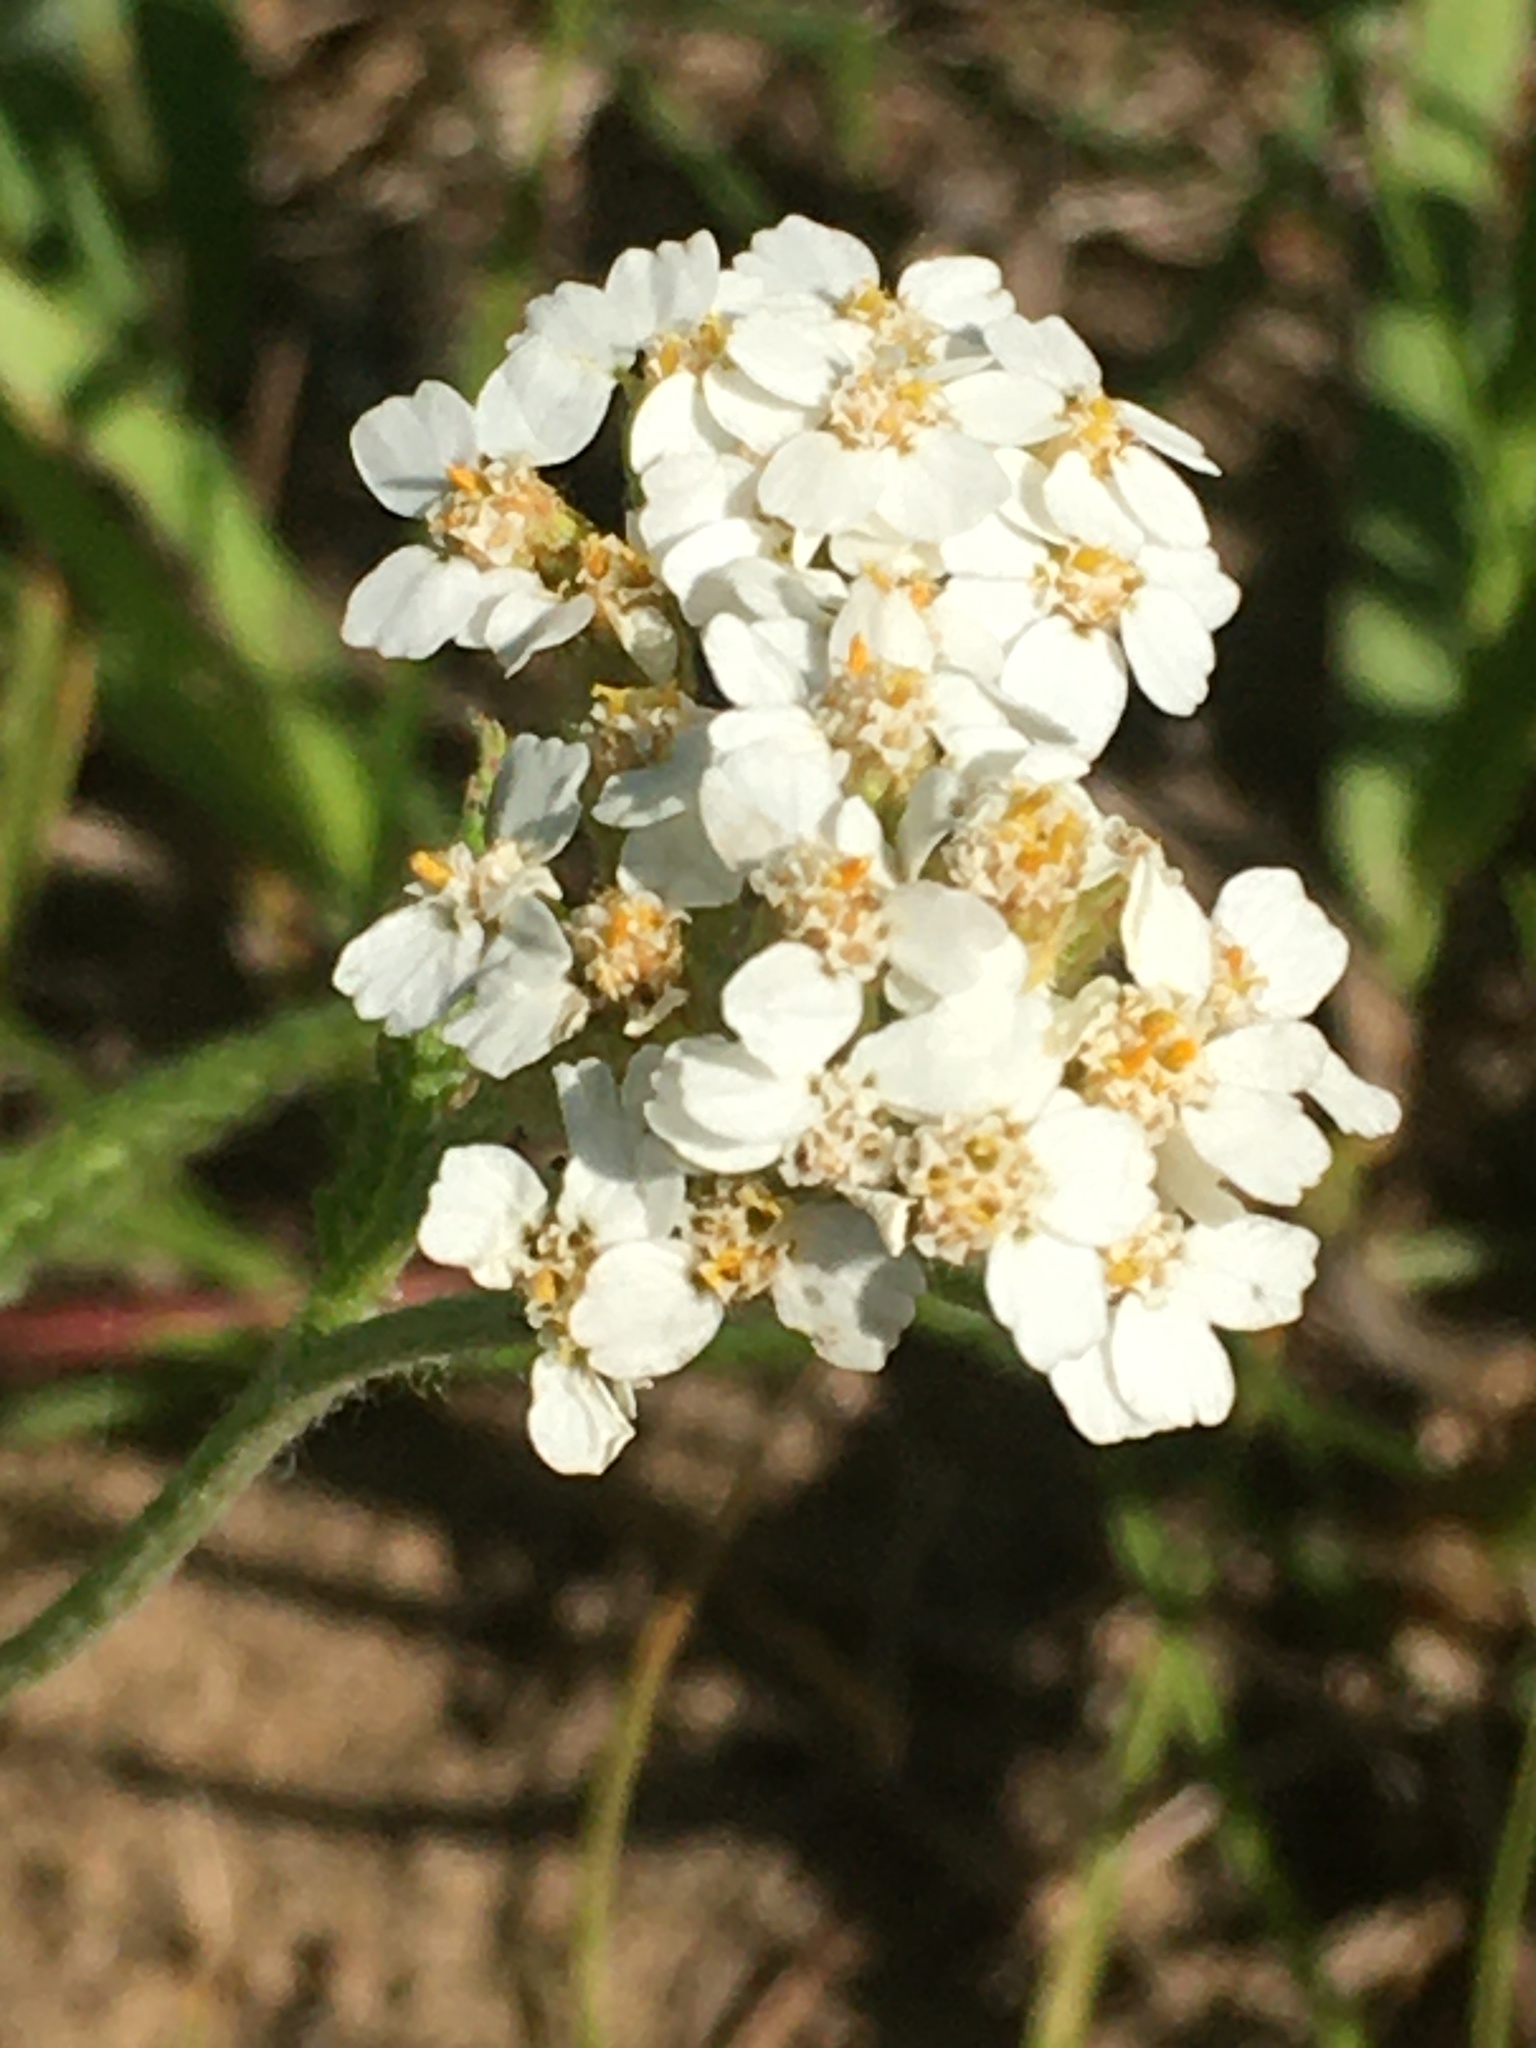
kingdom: Plantae
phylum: Tracheophyta
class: Magnoliopsida
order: Asterales
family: Asteraceae
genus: Achillea
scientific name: Achillea millefolium
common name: Yarrow
